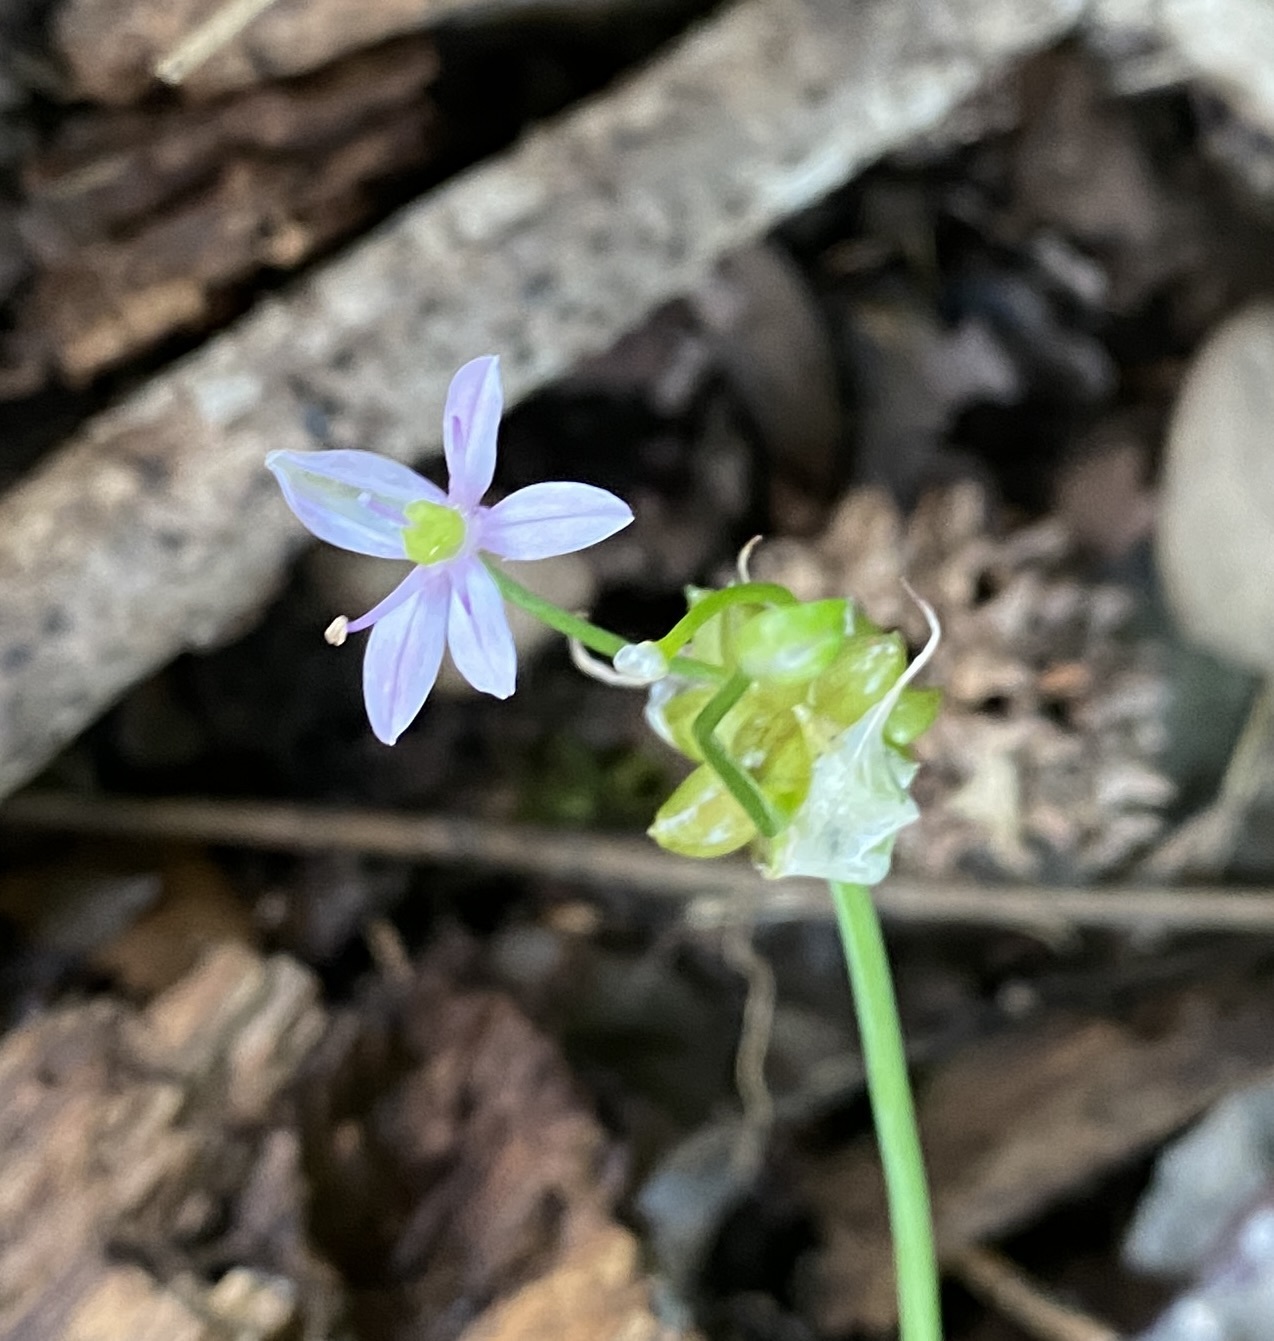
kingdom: Plantae
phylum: Tracheophyta
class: Liliopsida
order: Asparagales
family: Amaryllidaceae
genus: Allium
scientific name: Allium canadense
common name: Meadow garlic
